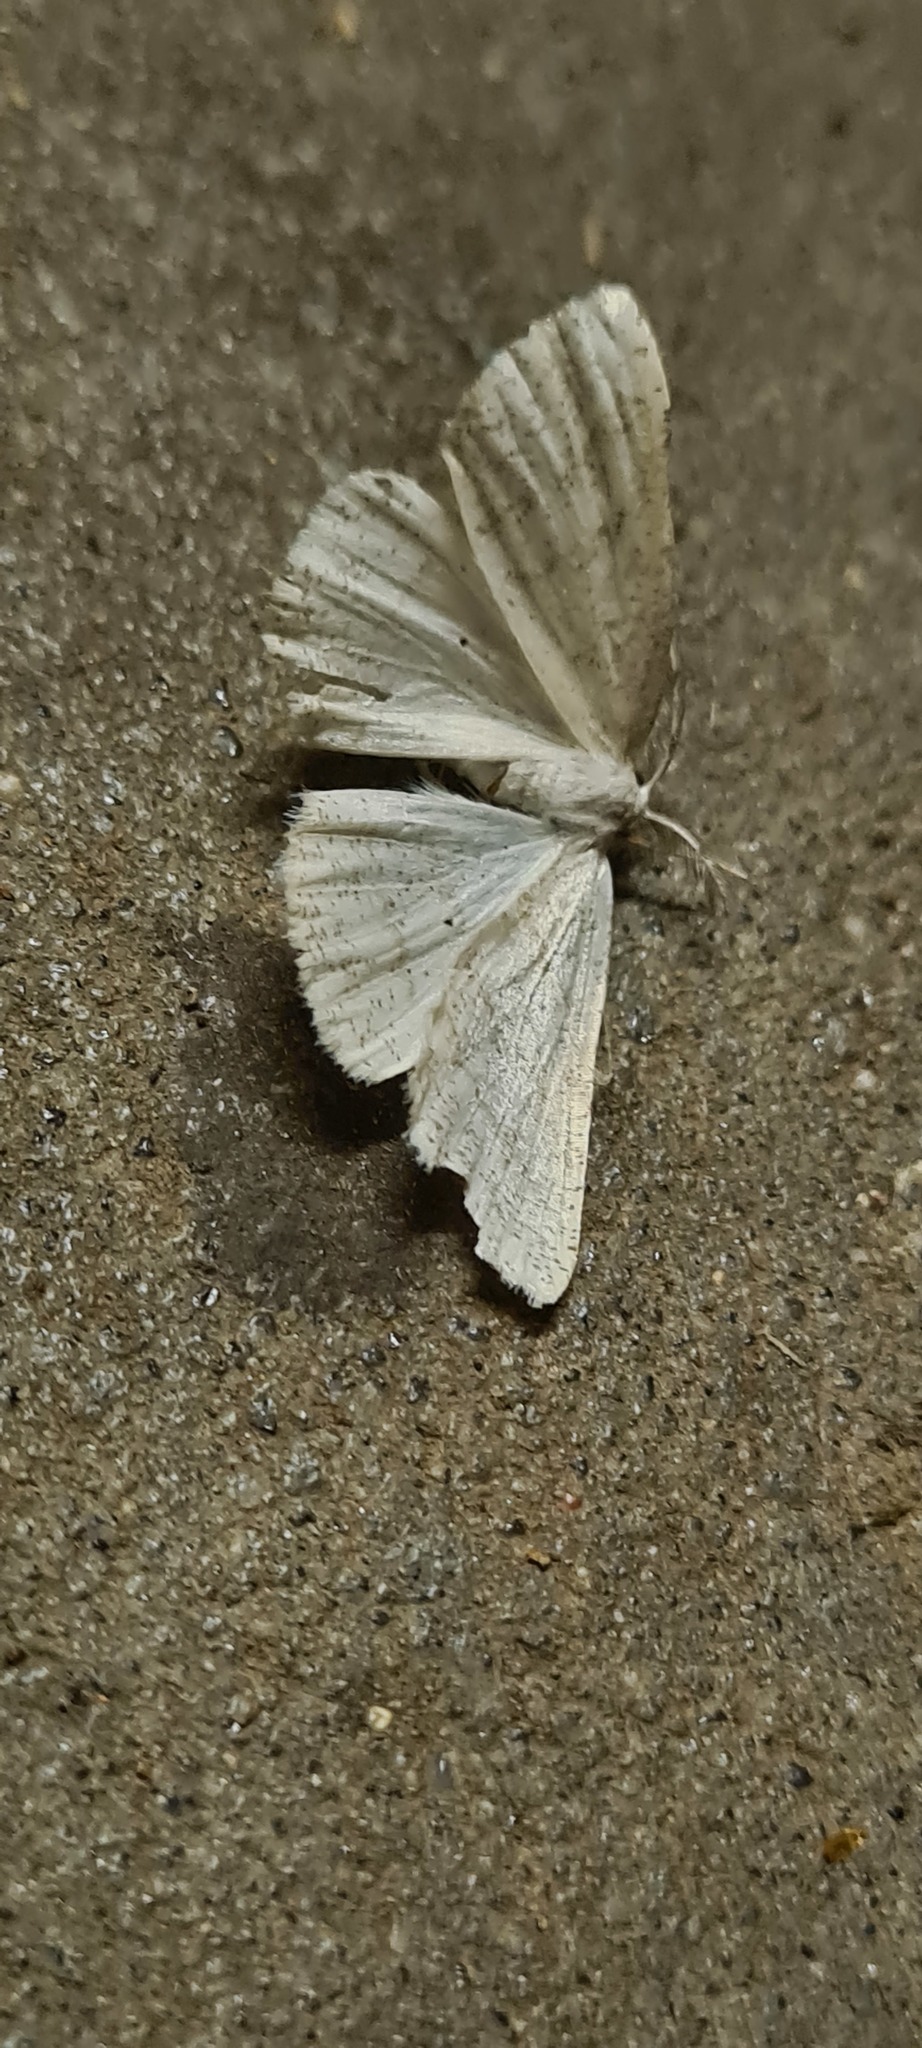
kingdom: Animalia
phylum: Arthropoda
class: Insecta
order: Lepidoptera
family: Geometridae
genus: Cabera
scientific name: Cabera pusaria
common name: Common white wave
